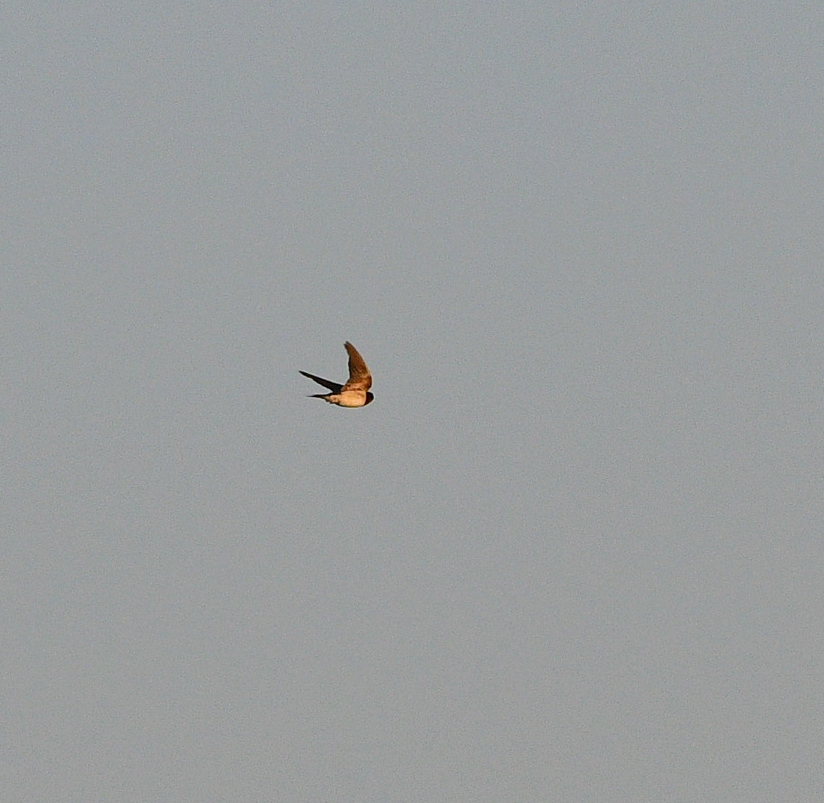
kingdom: Animalia
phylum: Chordata
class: Aves
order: Passeriformes
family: Hirundinidae
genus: Hirundo
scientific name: Hirundo rustica
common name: Barn swallow
